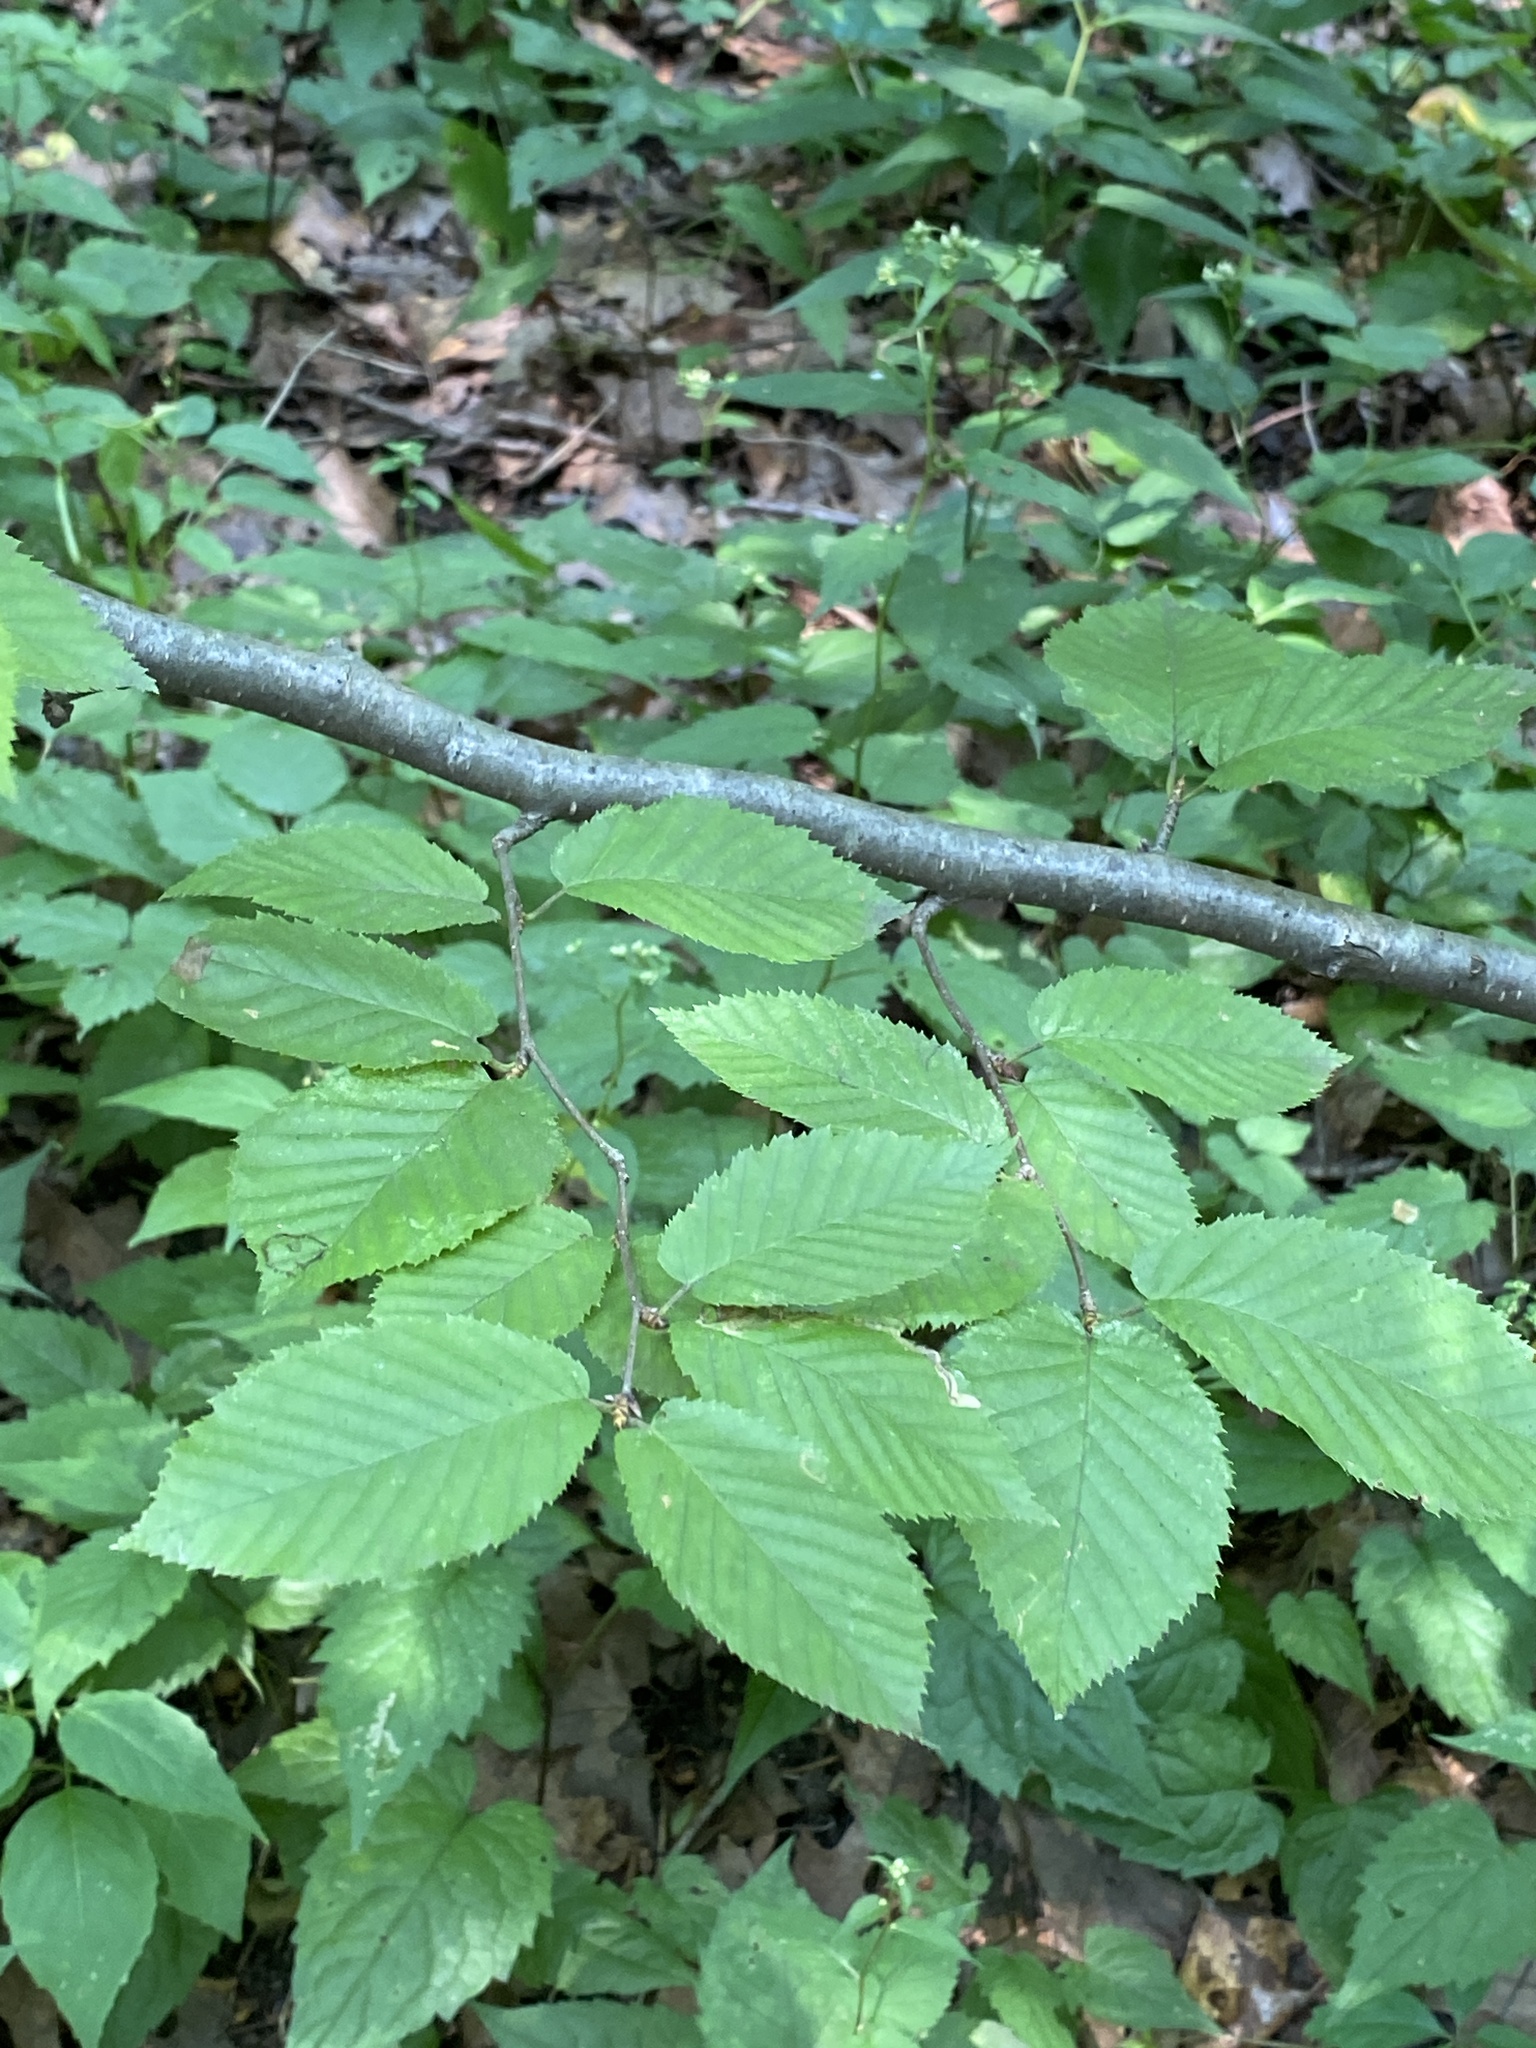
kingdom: Plantae
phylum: Tracheophyta
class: Magnoliopsida
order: Fagales
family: Betulaceae
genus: Betula
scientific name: Betula alleghaniensis
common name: Yellow birch
